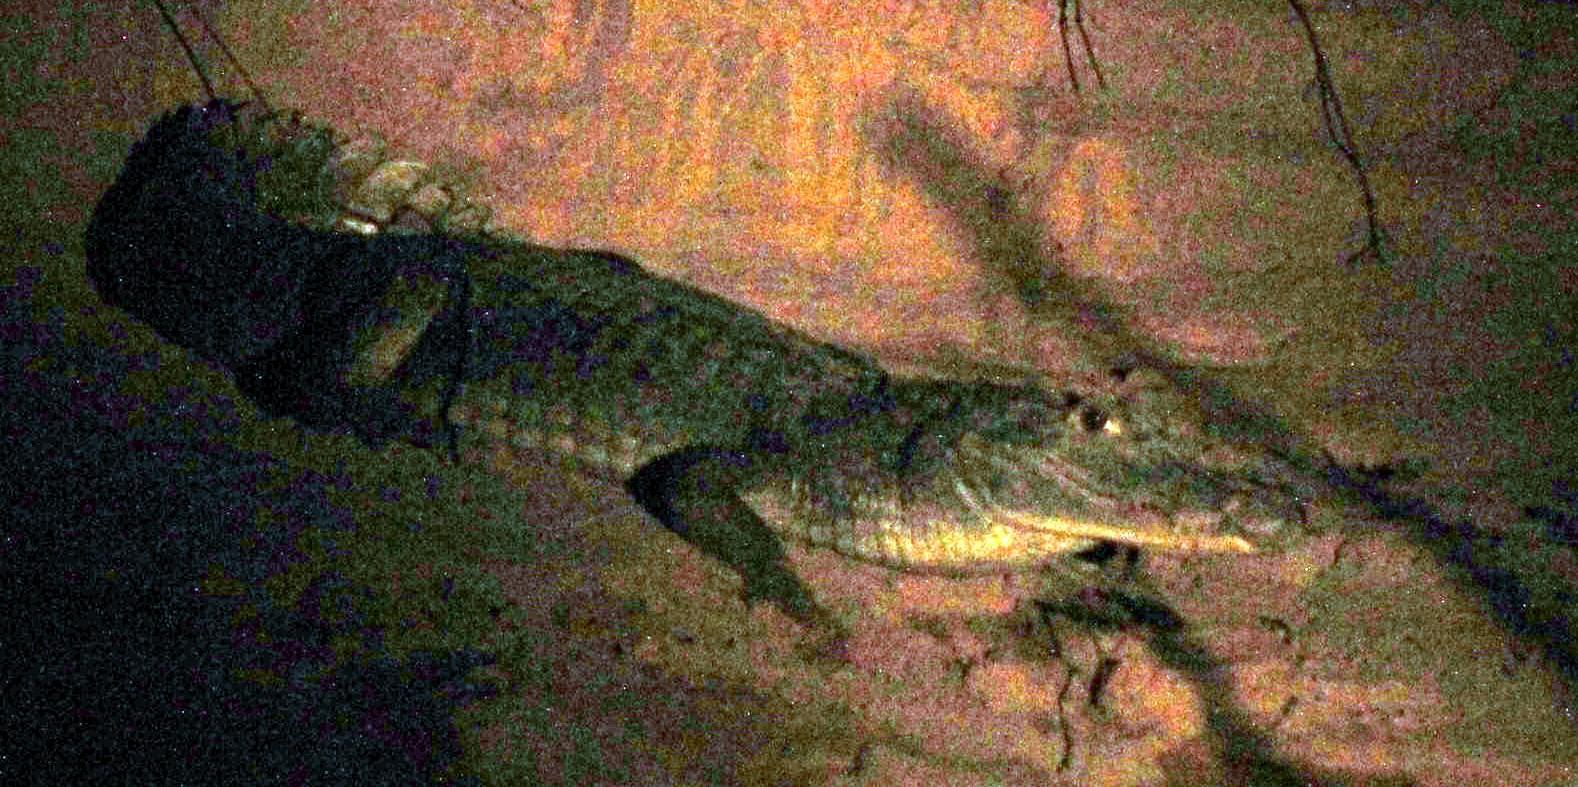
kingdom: Animalia
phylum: Chordata
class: Crocodylia
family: Alligatoridae
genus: Caiman
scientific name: Caiman crocodilus
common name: Common caiman
